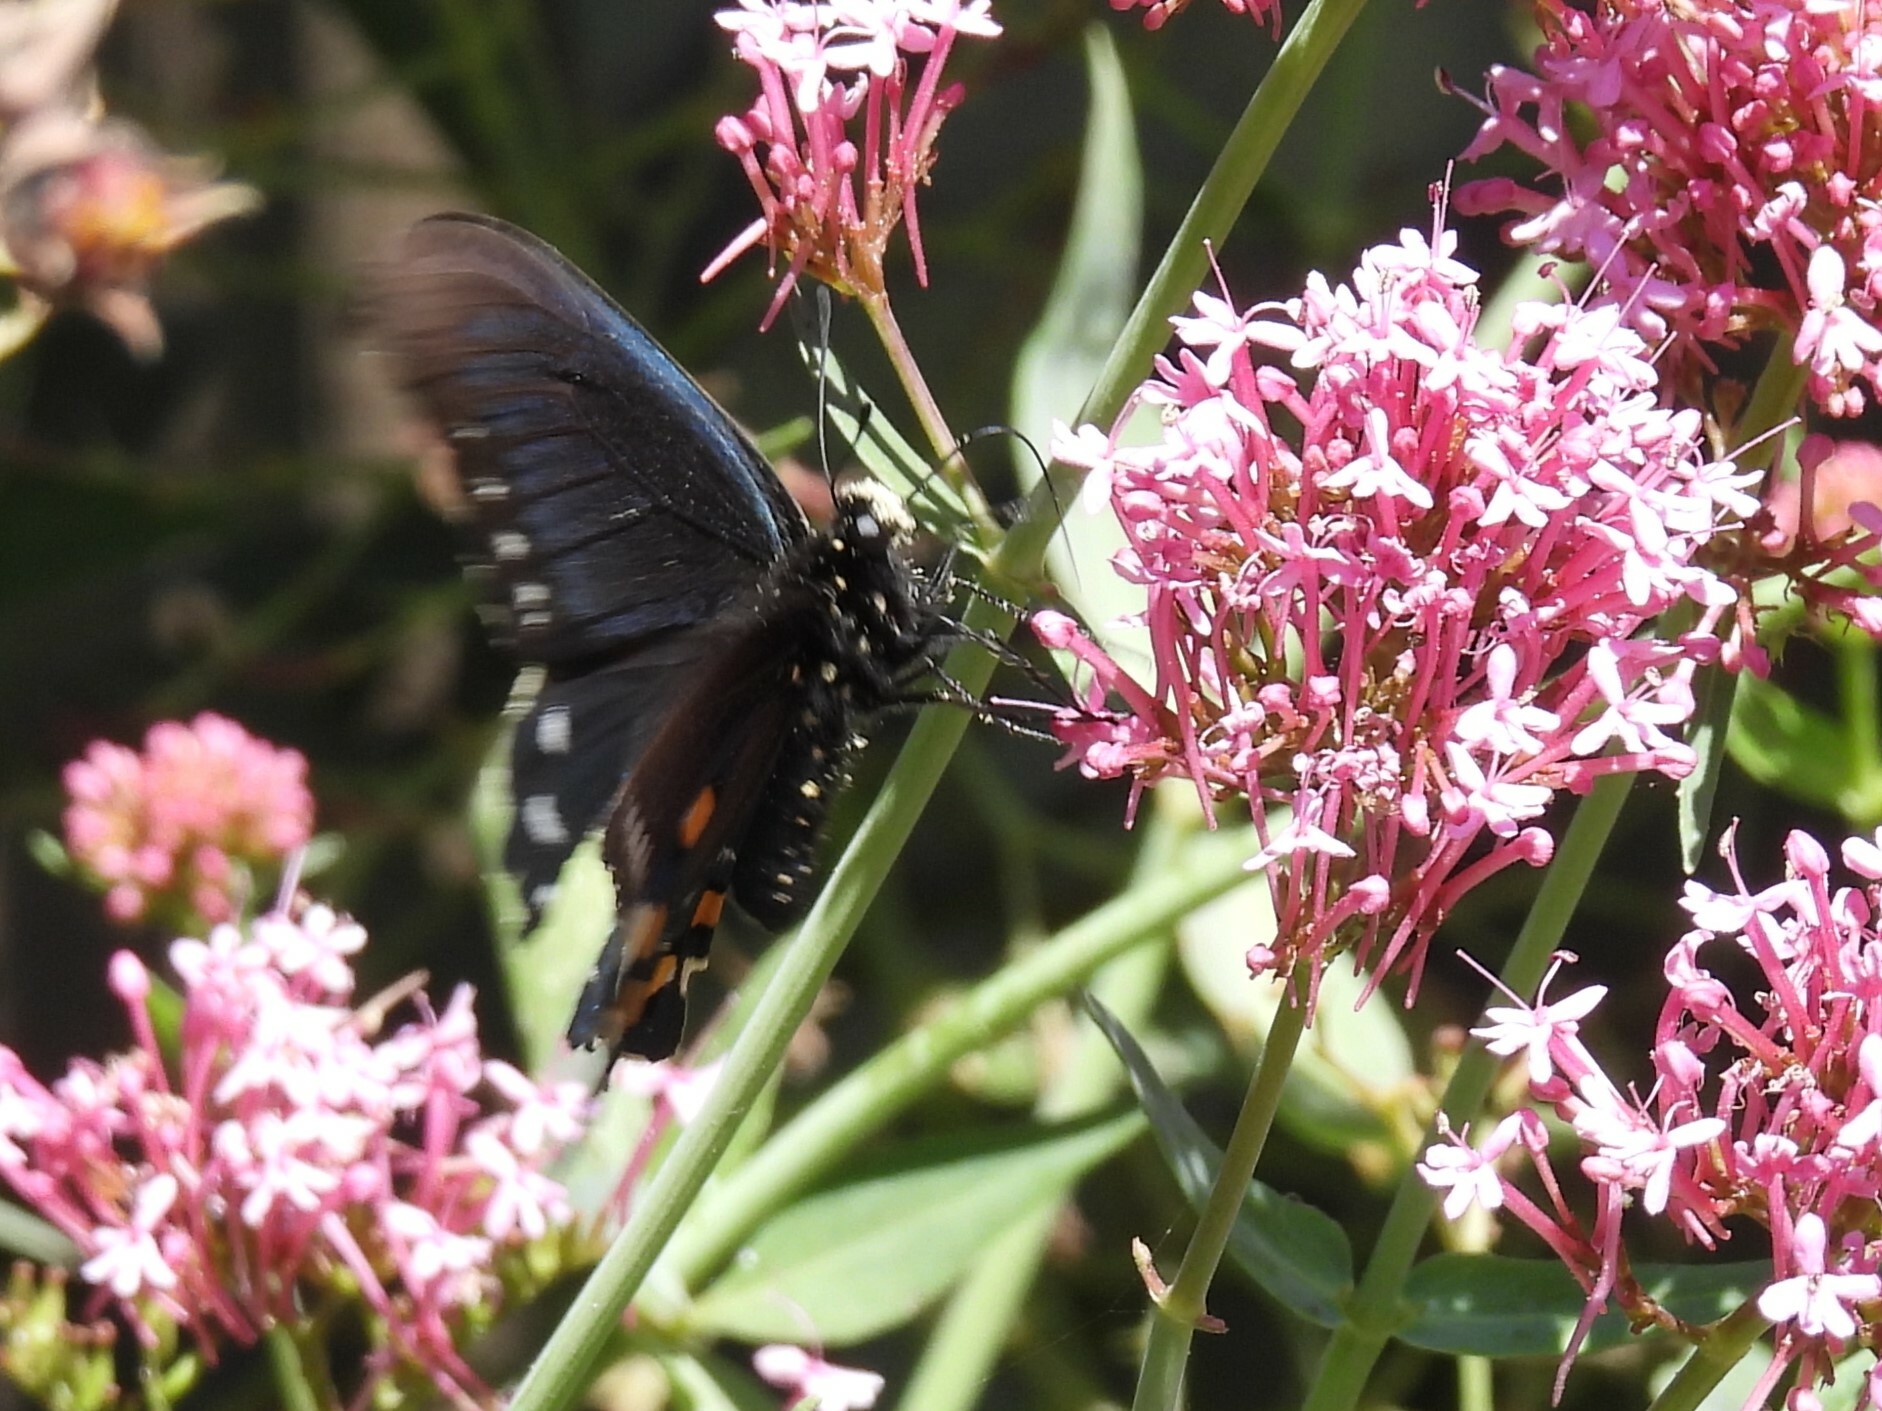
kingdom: Animalia
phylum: Arthropoda
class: Insecta
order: Lepidoptera
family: Papilionidae
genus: Battus
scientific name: Battus philenor
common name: Pipevine swallowtail
